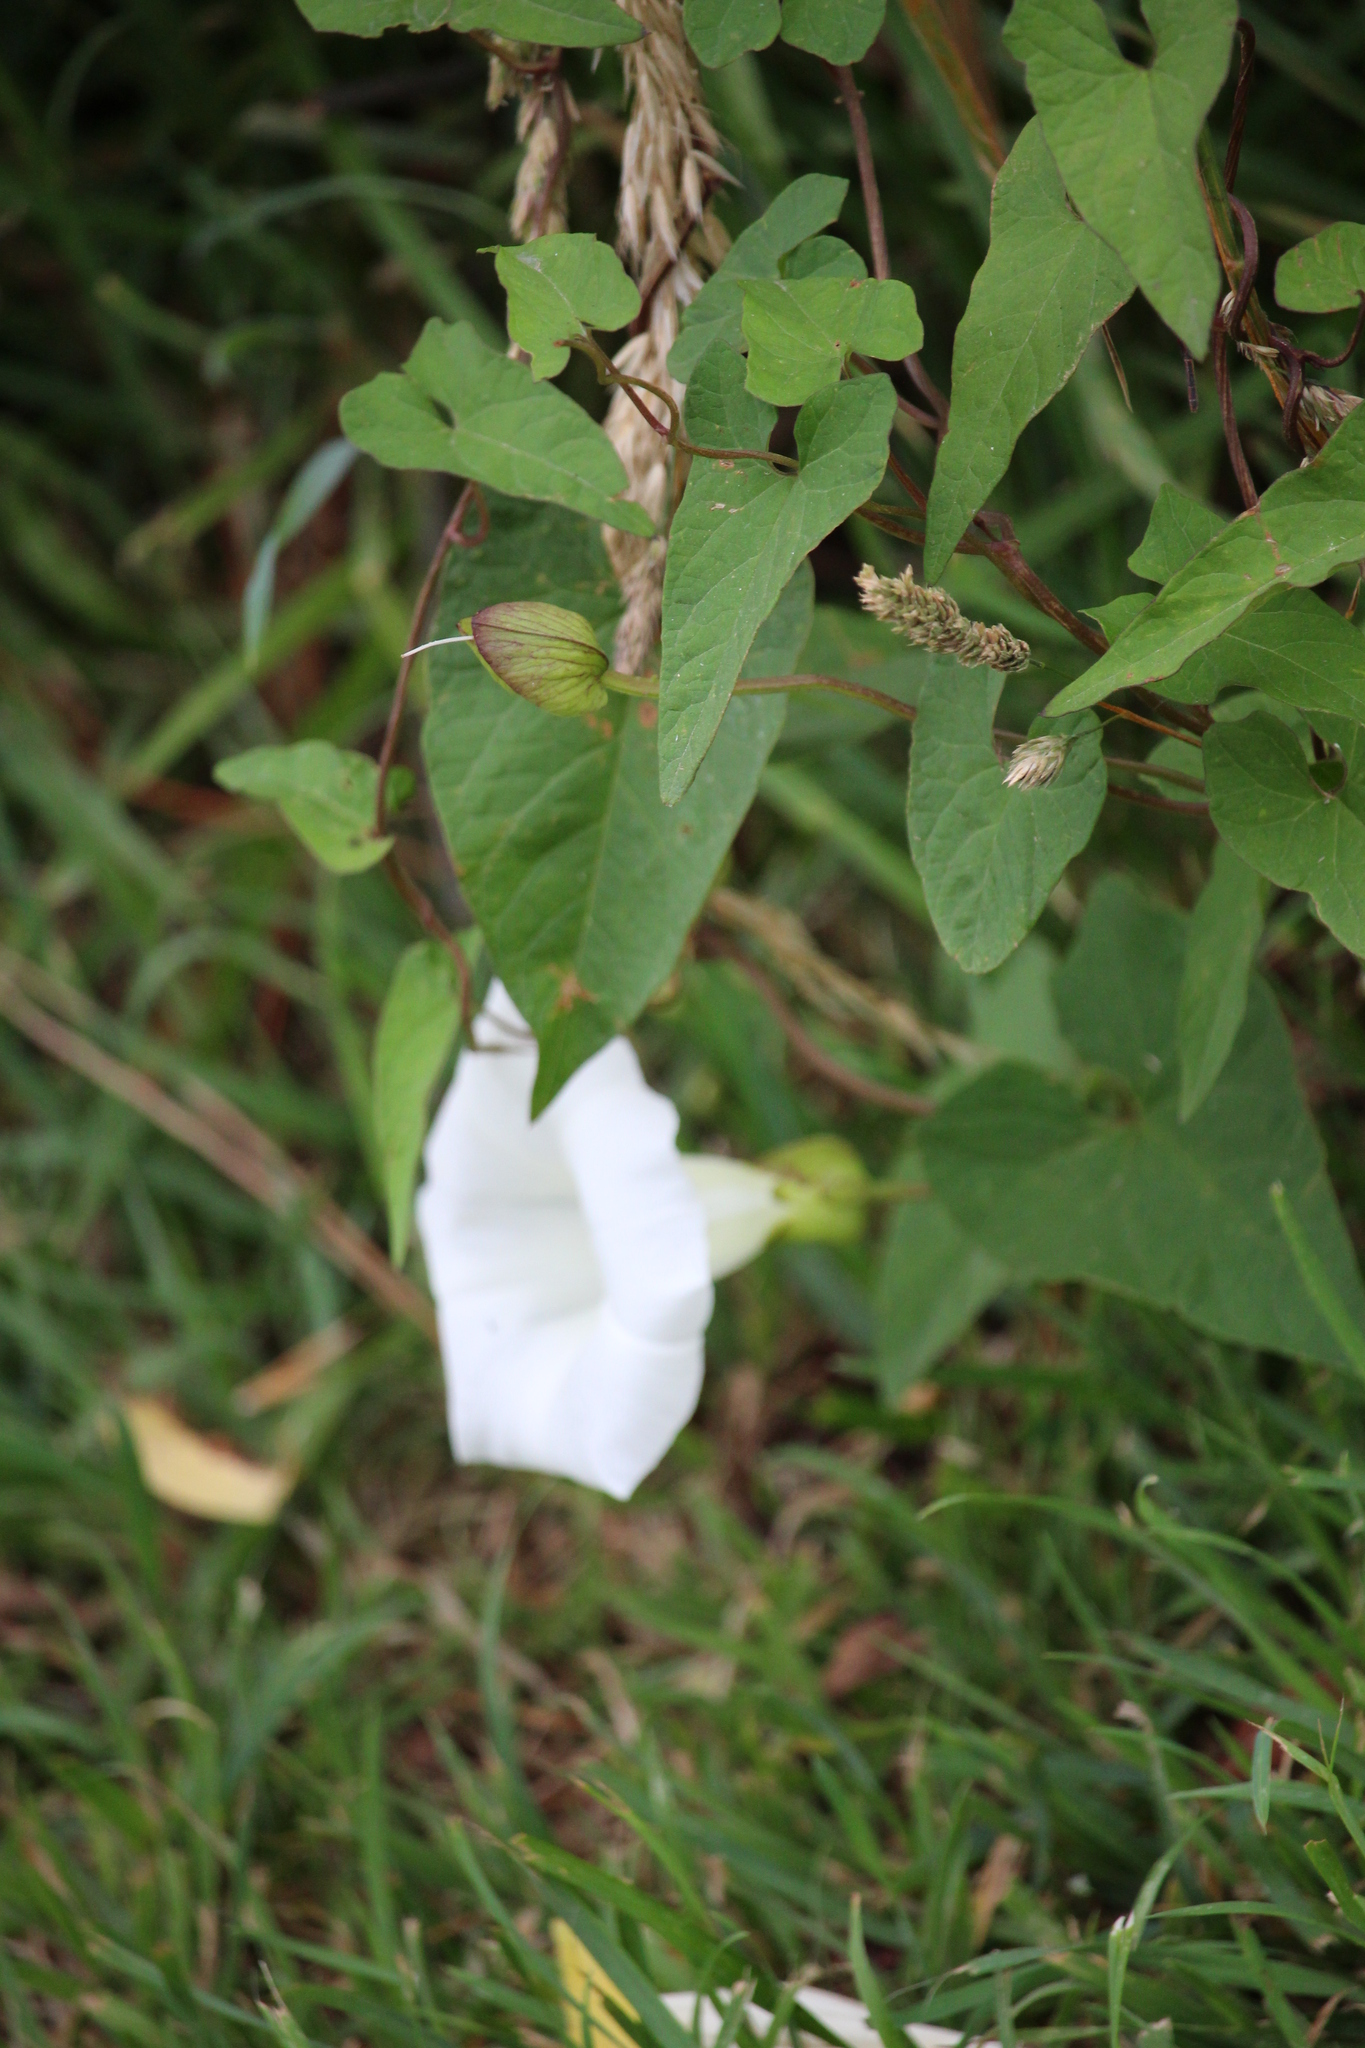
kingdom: Plantae
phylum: Tracheophyta
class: Magnoliopsida
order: Solanales
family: Convolvulaceae
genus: Calystegia
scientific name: Calystegia silvatica
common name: Large bindweed
